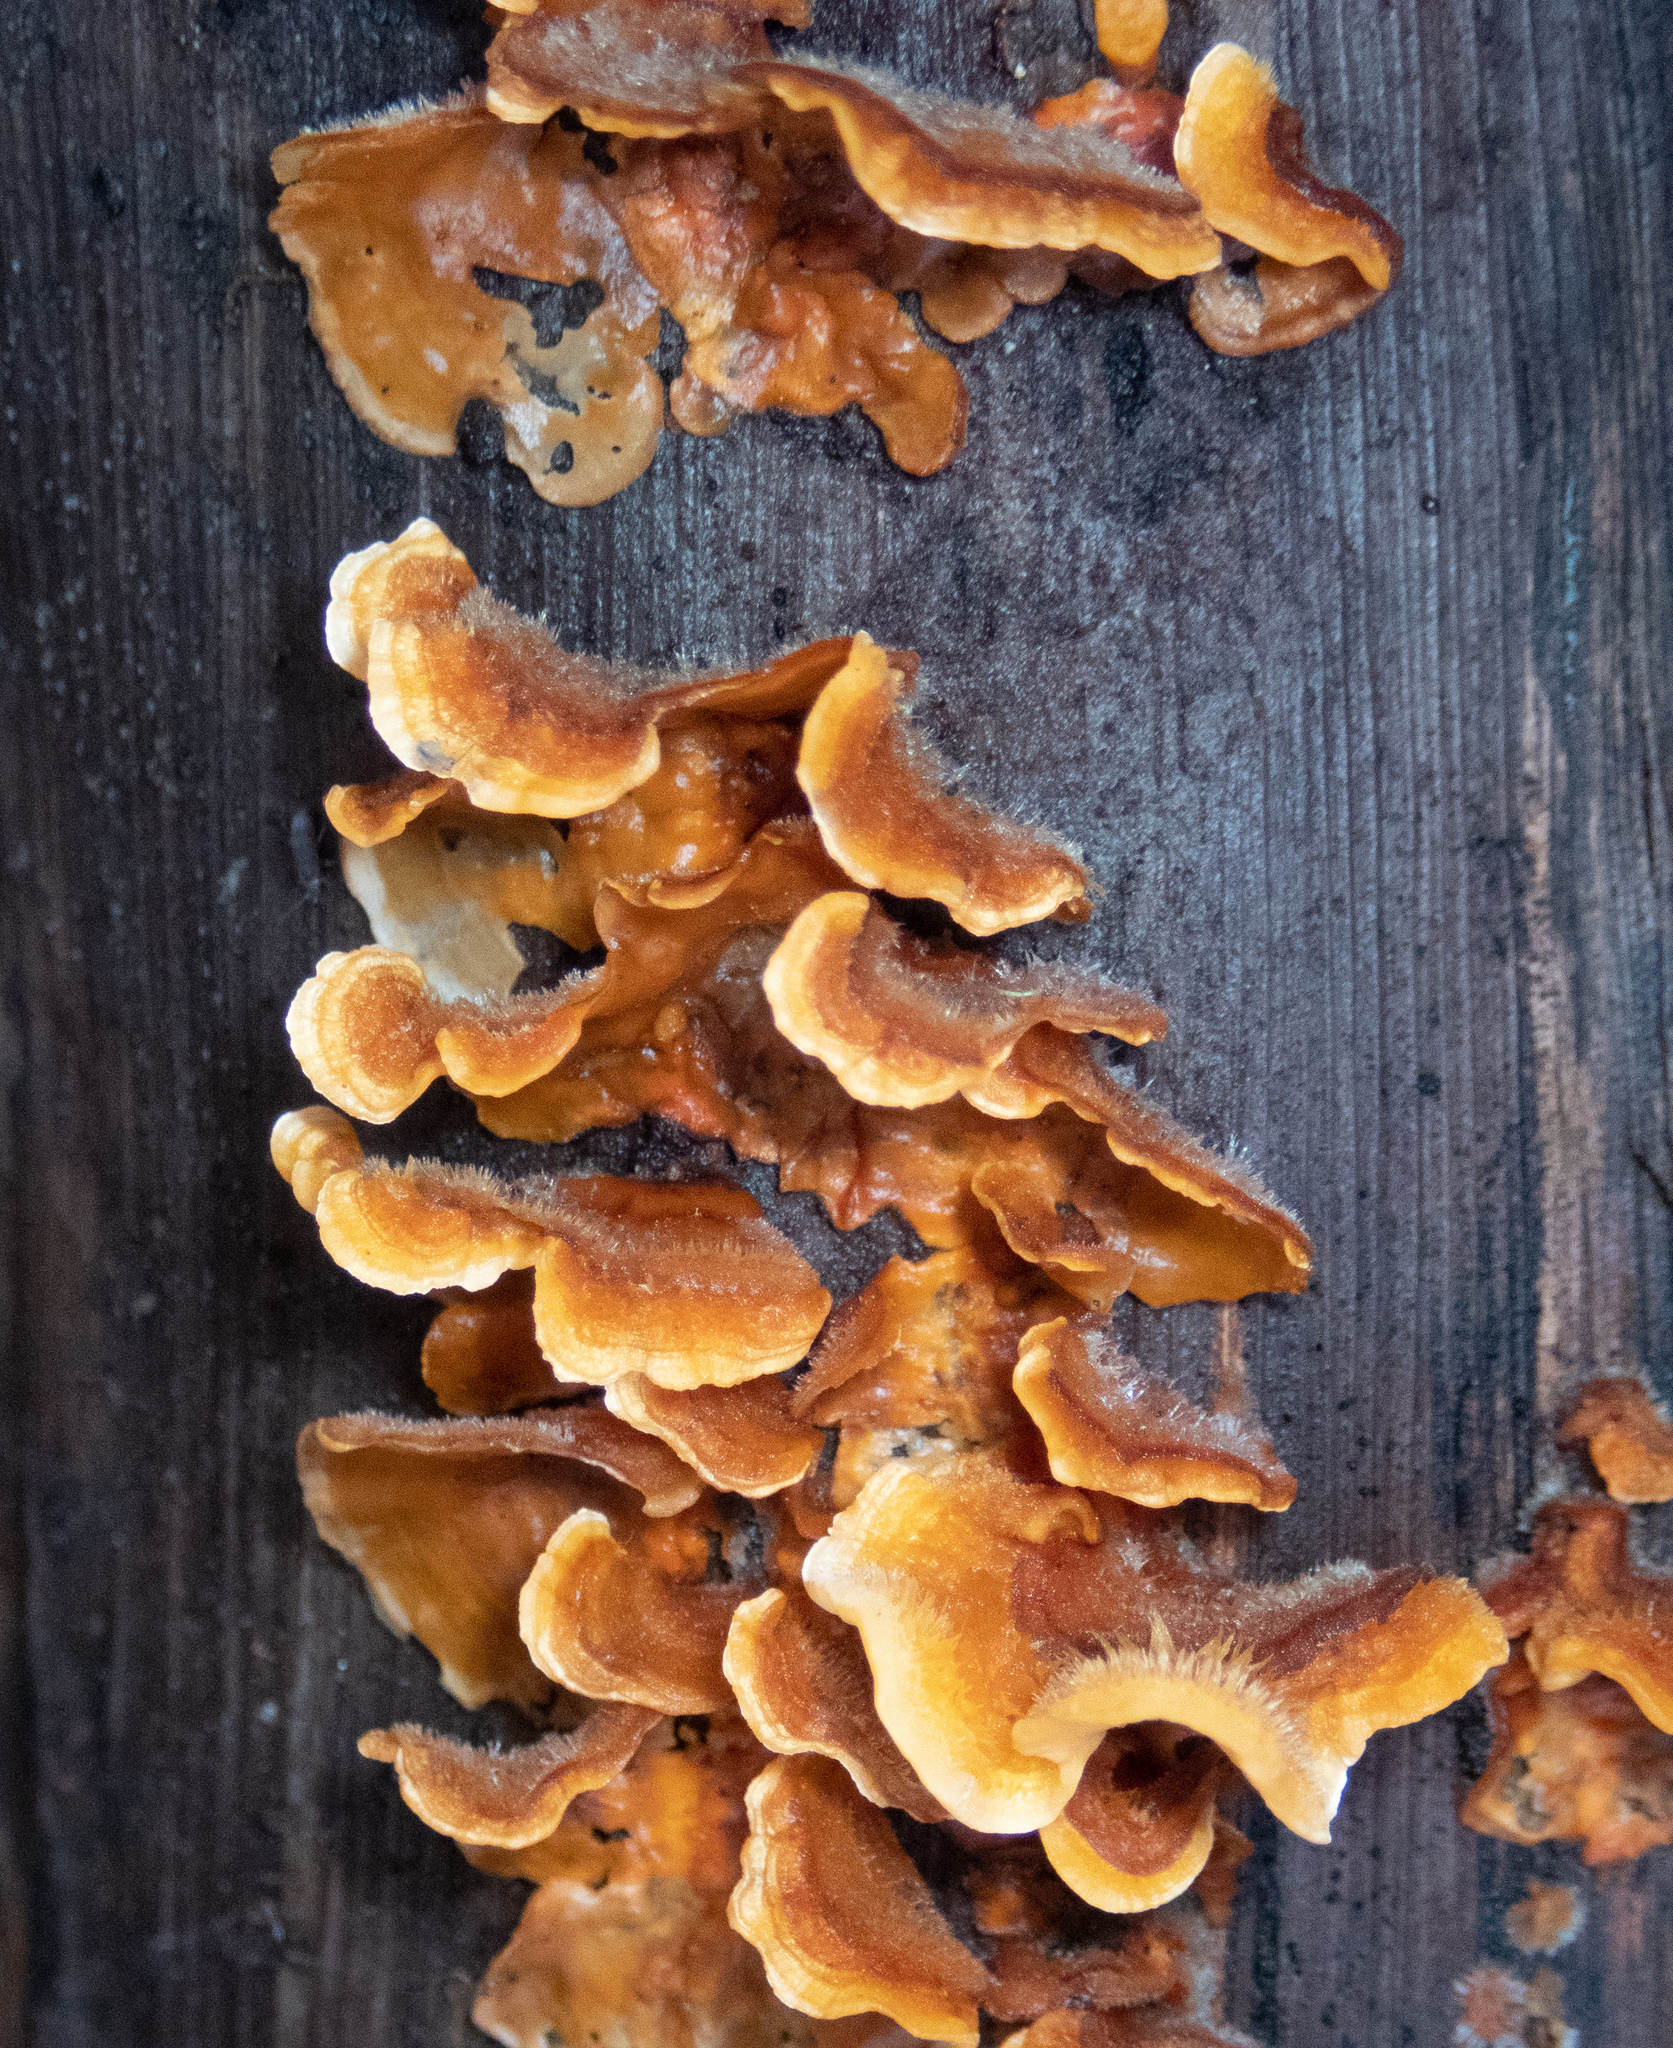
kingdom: Fungi
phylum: Basidiomycota
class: Agaricomycetes
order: Russulales
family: Stereaceae
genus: Stereum
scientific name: Stereum hirsutum
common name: Hairy curtain crust
